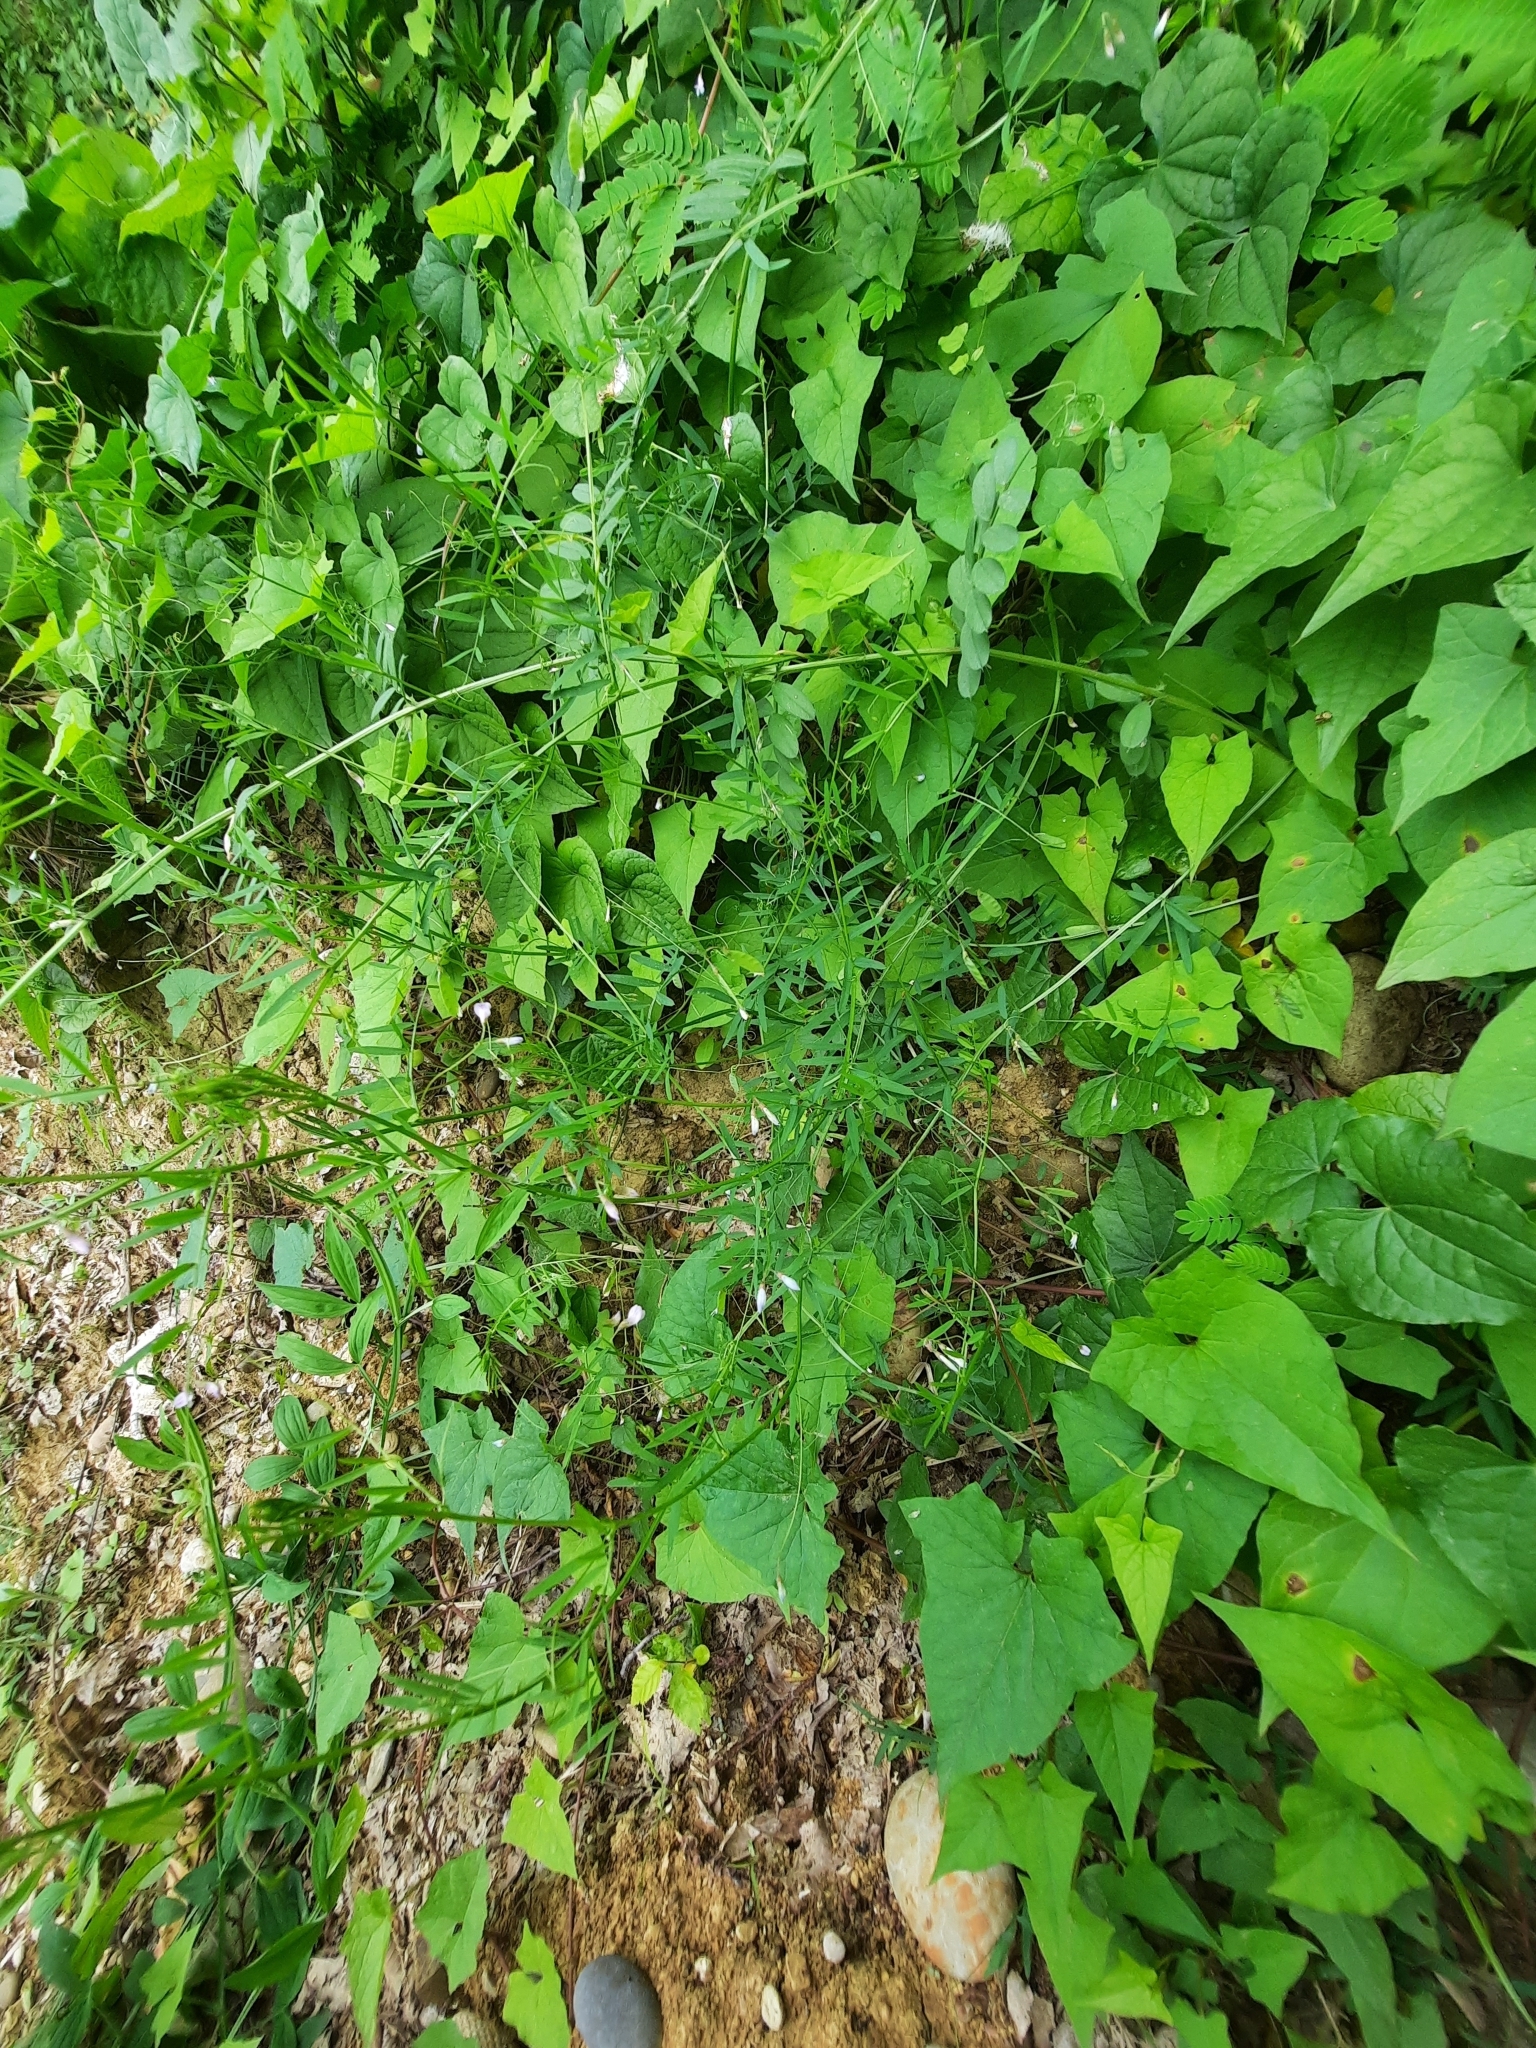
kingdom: Plantae
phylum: Tracheophyta
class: Magnoliopsida
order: Fabales
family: Fabaceae
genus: Vicia
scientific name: Vicia tetrasperma
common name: Smooth tare
